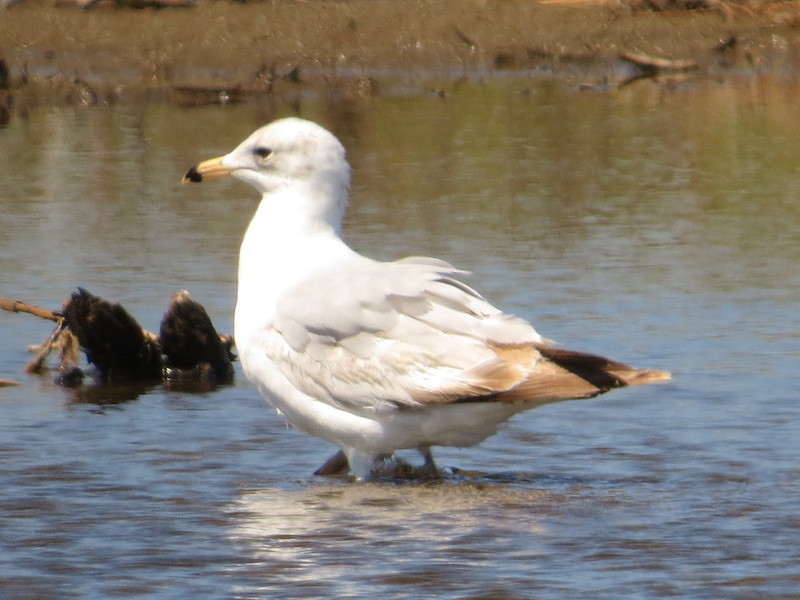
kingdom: Animalia
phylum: Chordata
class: Aves
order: Charadriiformes
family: Laridae
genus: Larus
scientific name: Larus delawarensis
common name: Ring-billed gull
